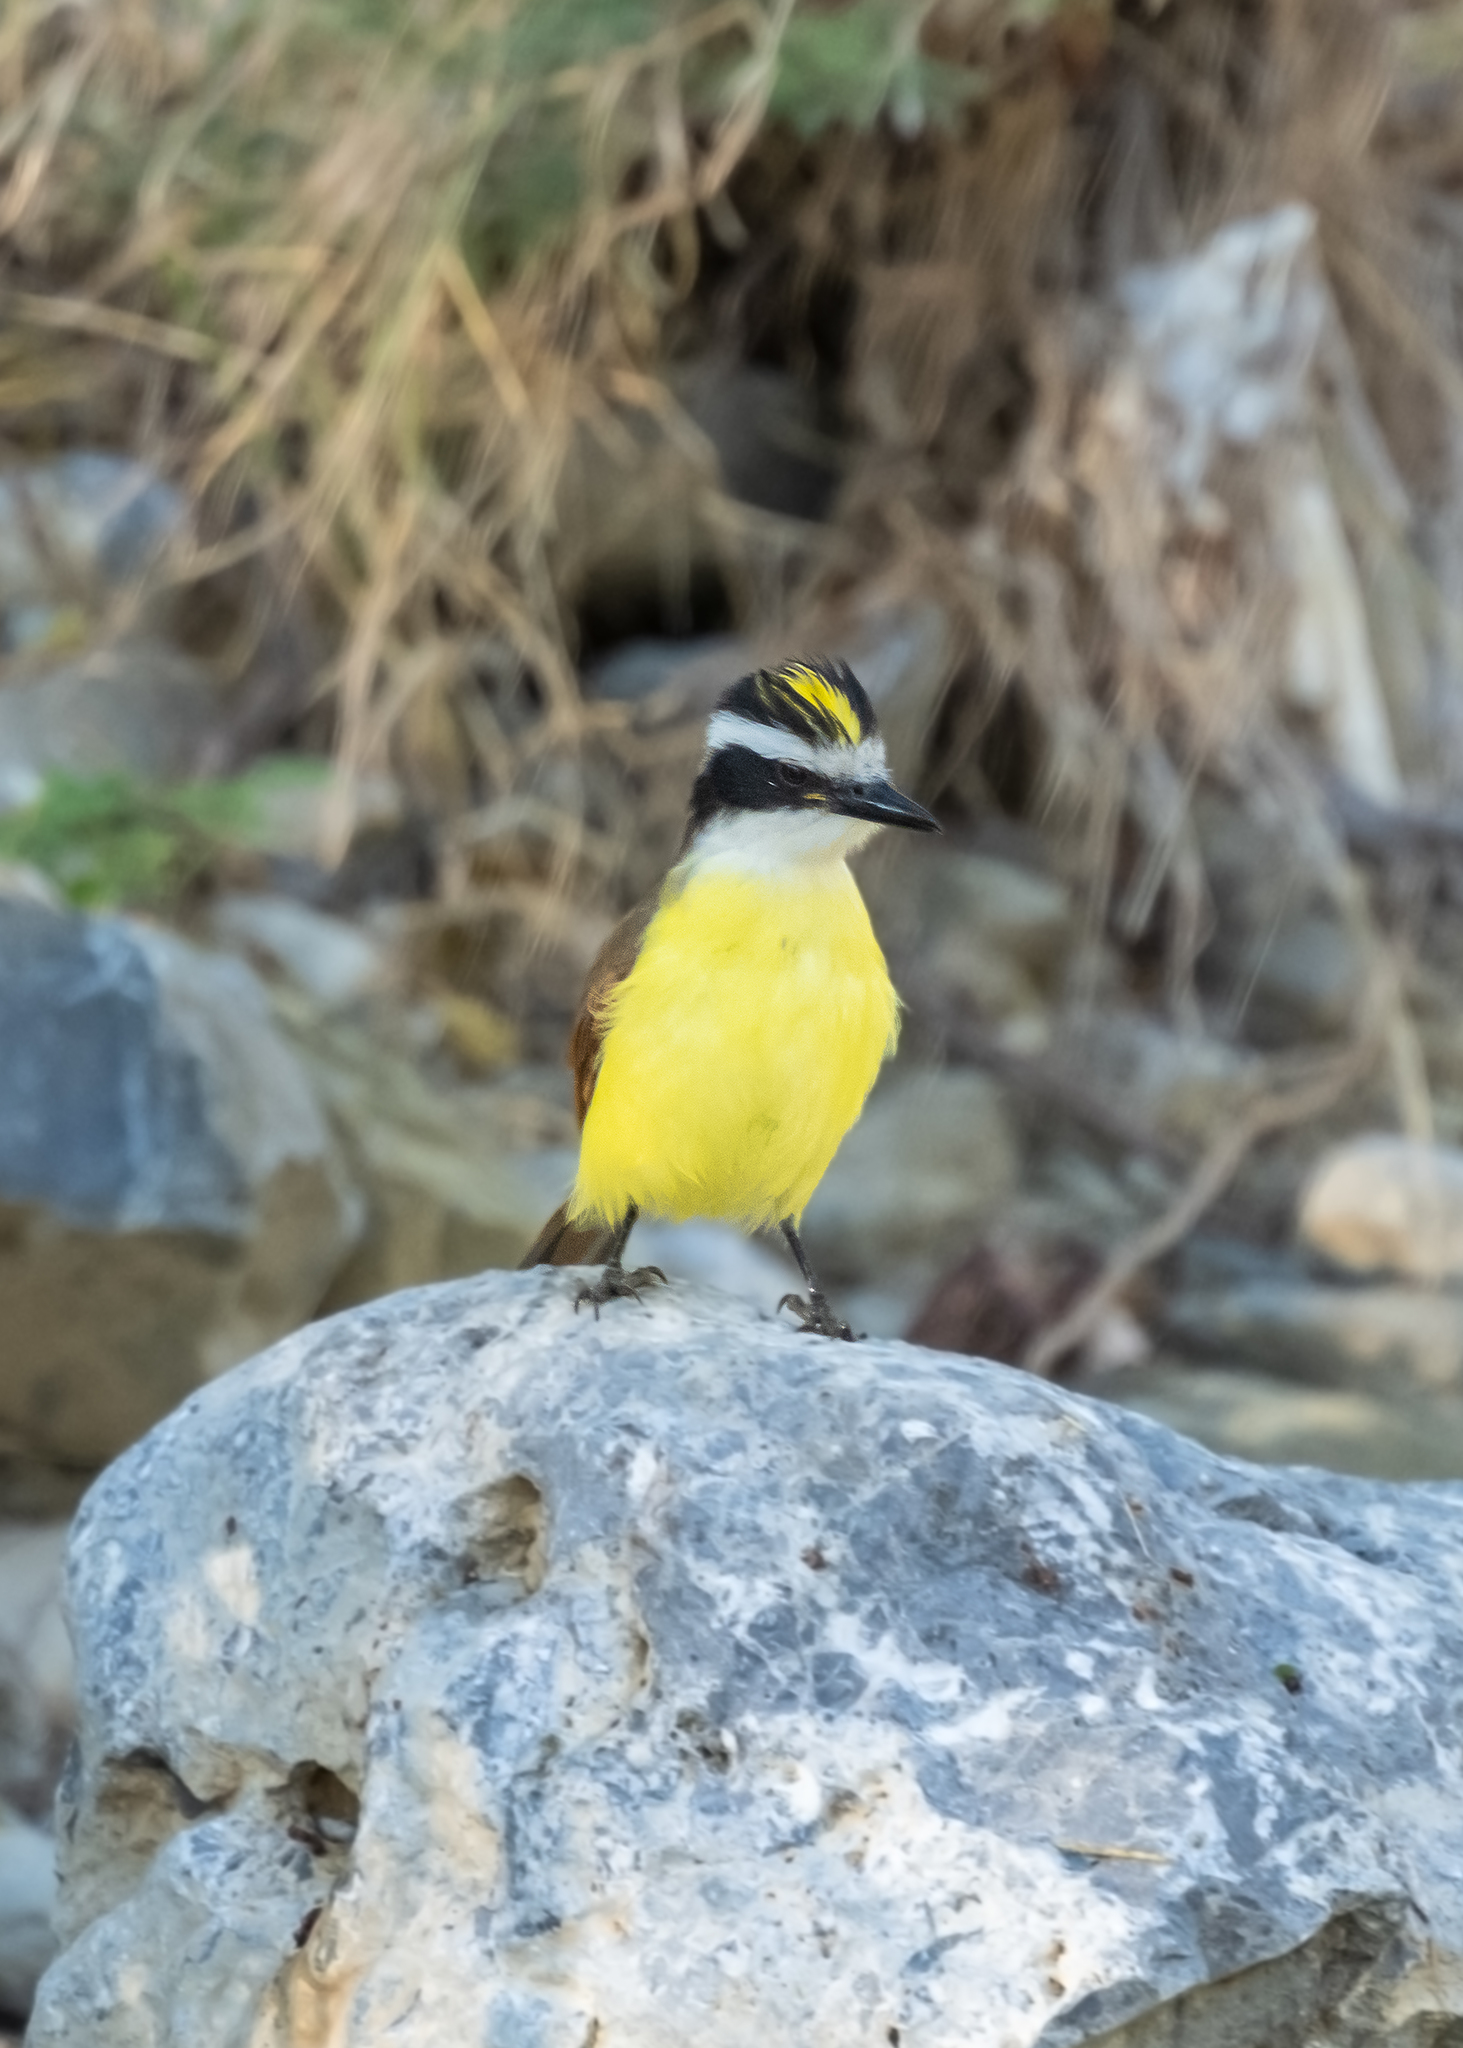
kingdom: Animalia
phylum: Chordata
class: Aves
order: Passeriformes
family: Tyrannidae
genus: Pitangus
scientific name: Pitangus sulphuratus
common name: Great kiskadee
